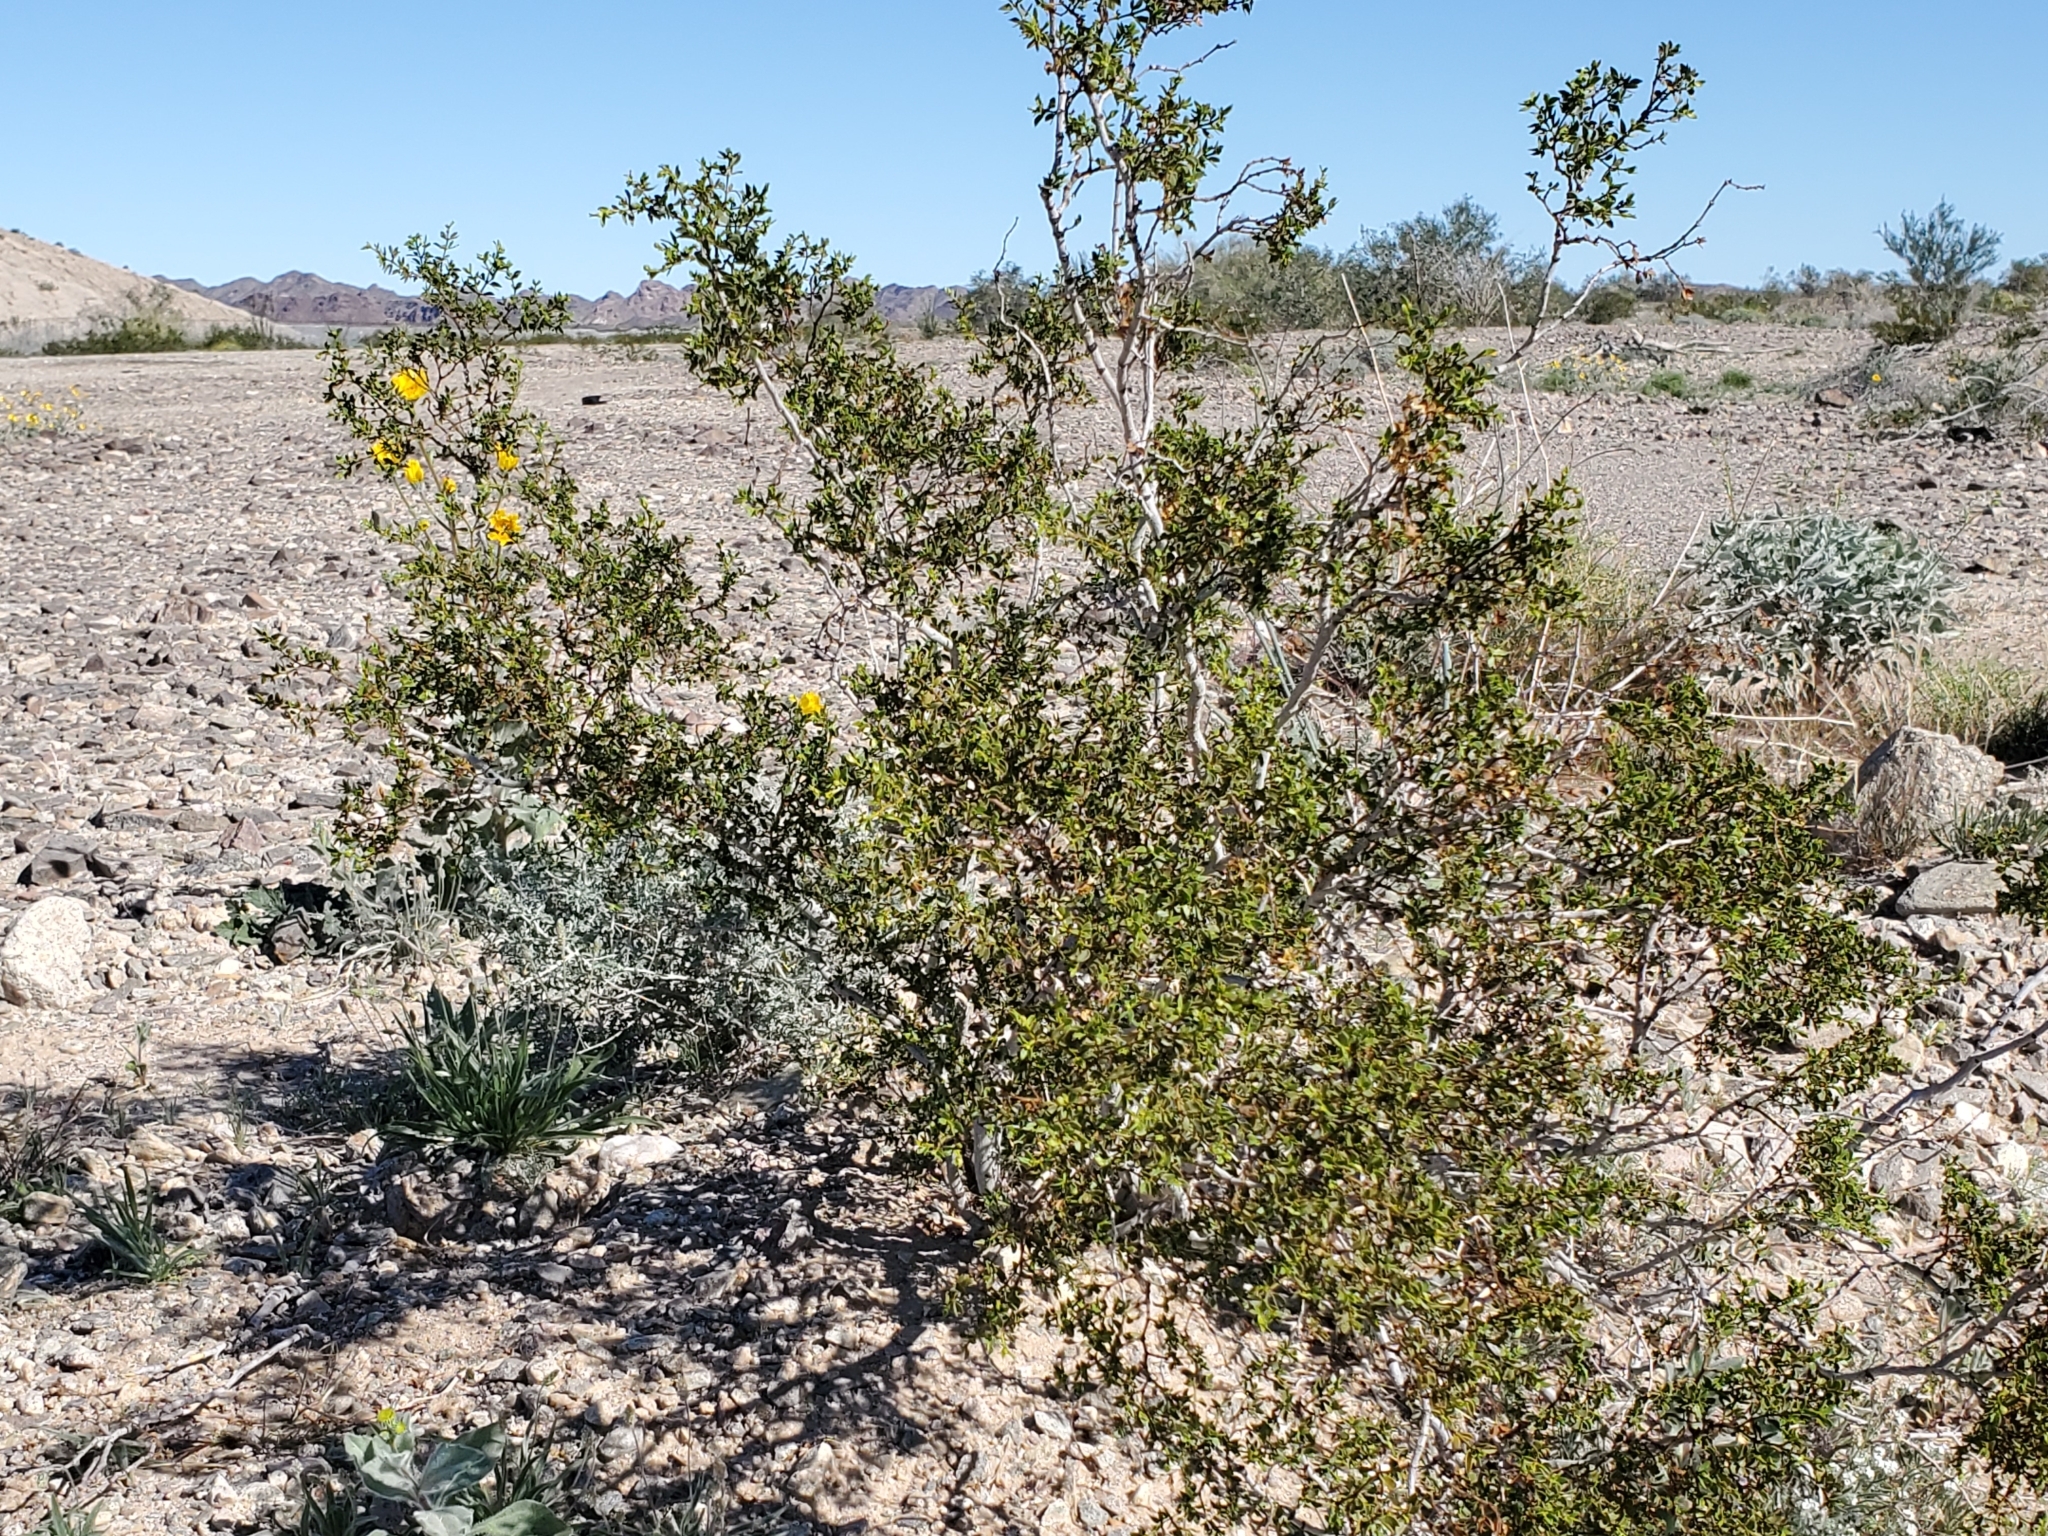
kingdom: Plantae
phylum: Tracheophyta
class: Magnoliopsida
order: Zygophyllales
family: Zygophyllaceae
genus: Larrea
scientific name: Larrea tridentata
